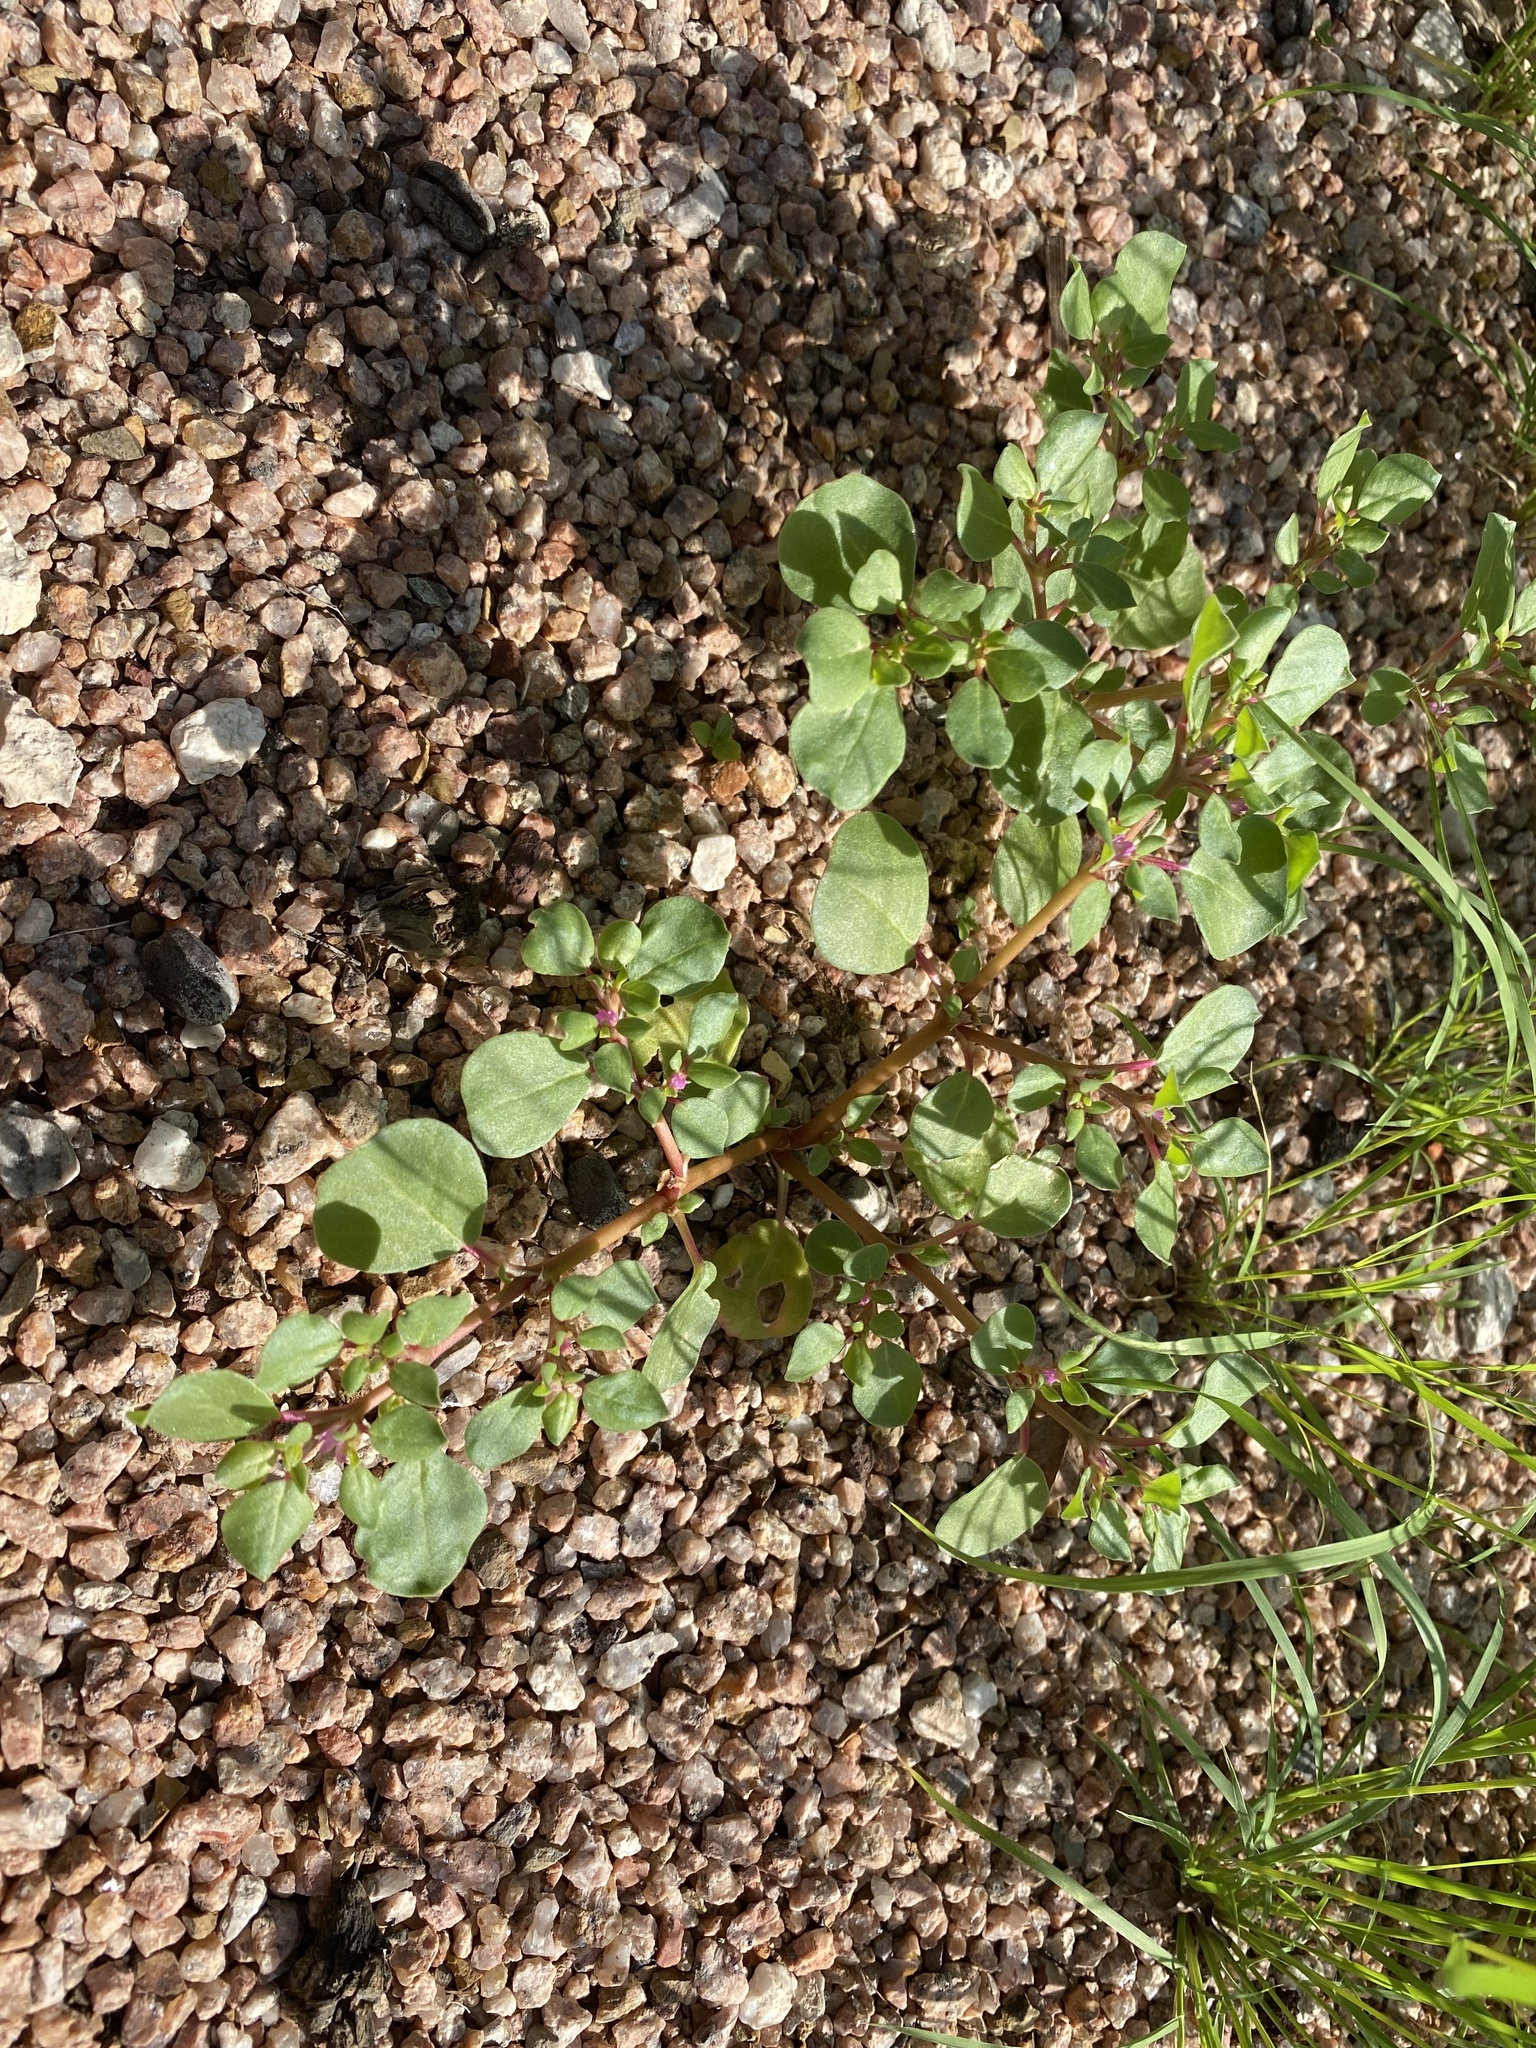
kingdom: Plantae
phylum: Tracheophyta
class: Magnoliopsida
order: Caryophyllales
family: Aizoaceae
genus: Trianthema
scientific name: Trianthema portulacastrum
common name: Desert horsepurslane
